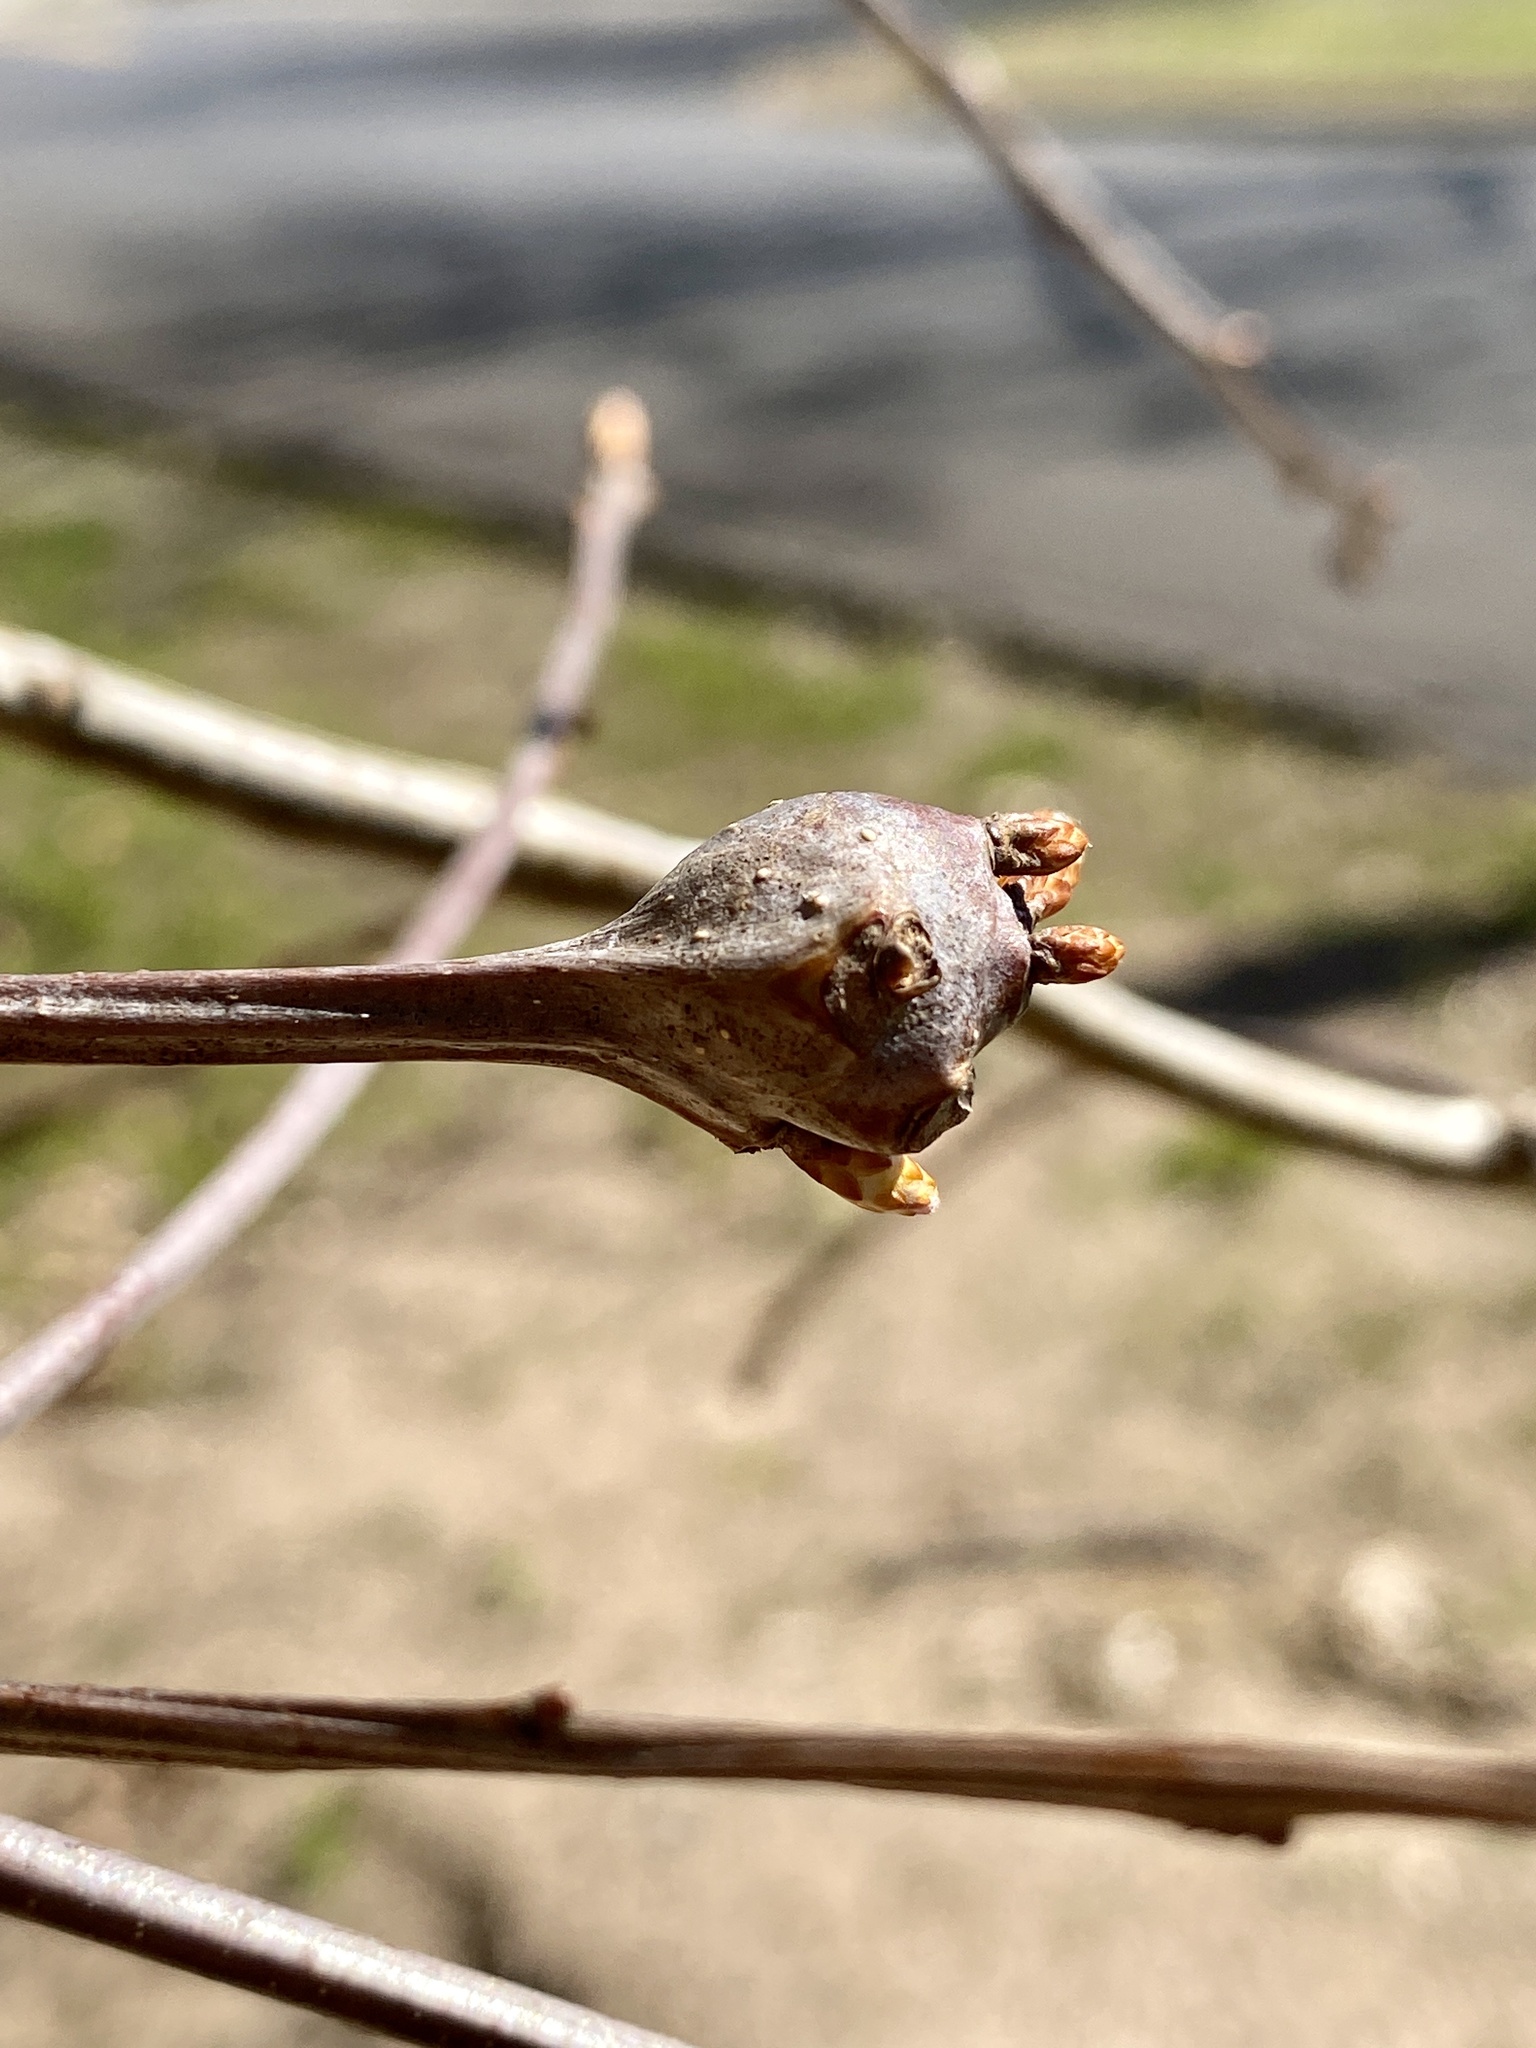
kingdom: Animalia
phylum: Arthropoda
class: Insecta
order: Hymenoptera
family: Cynipidae
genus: Callirhytis
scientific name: Callirhytis clavula
